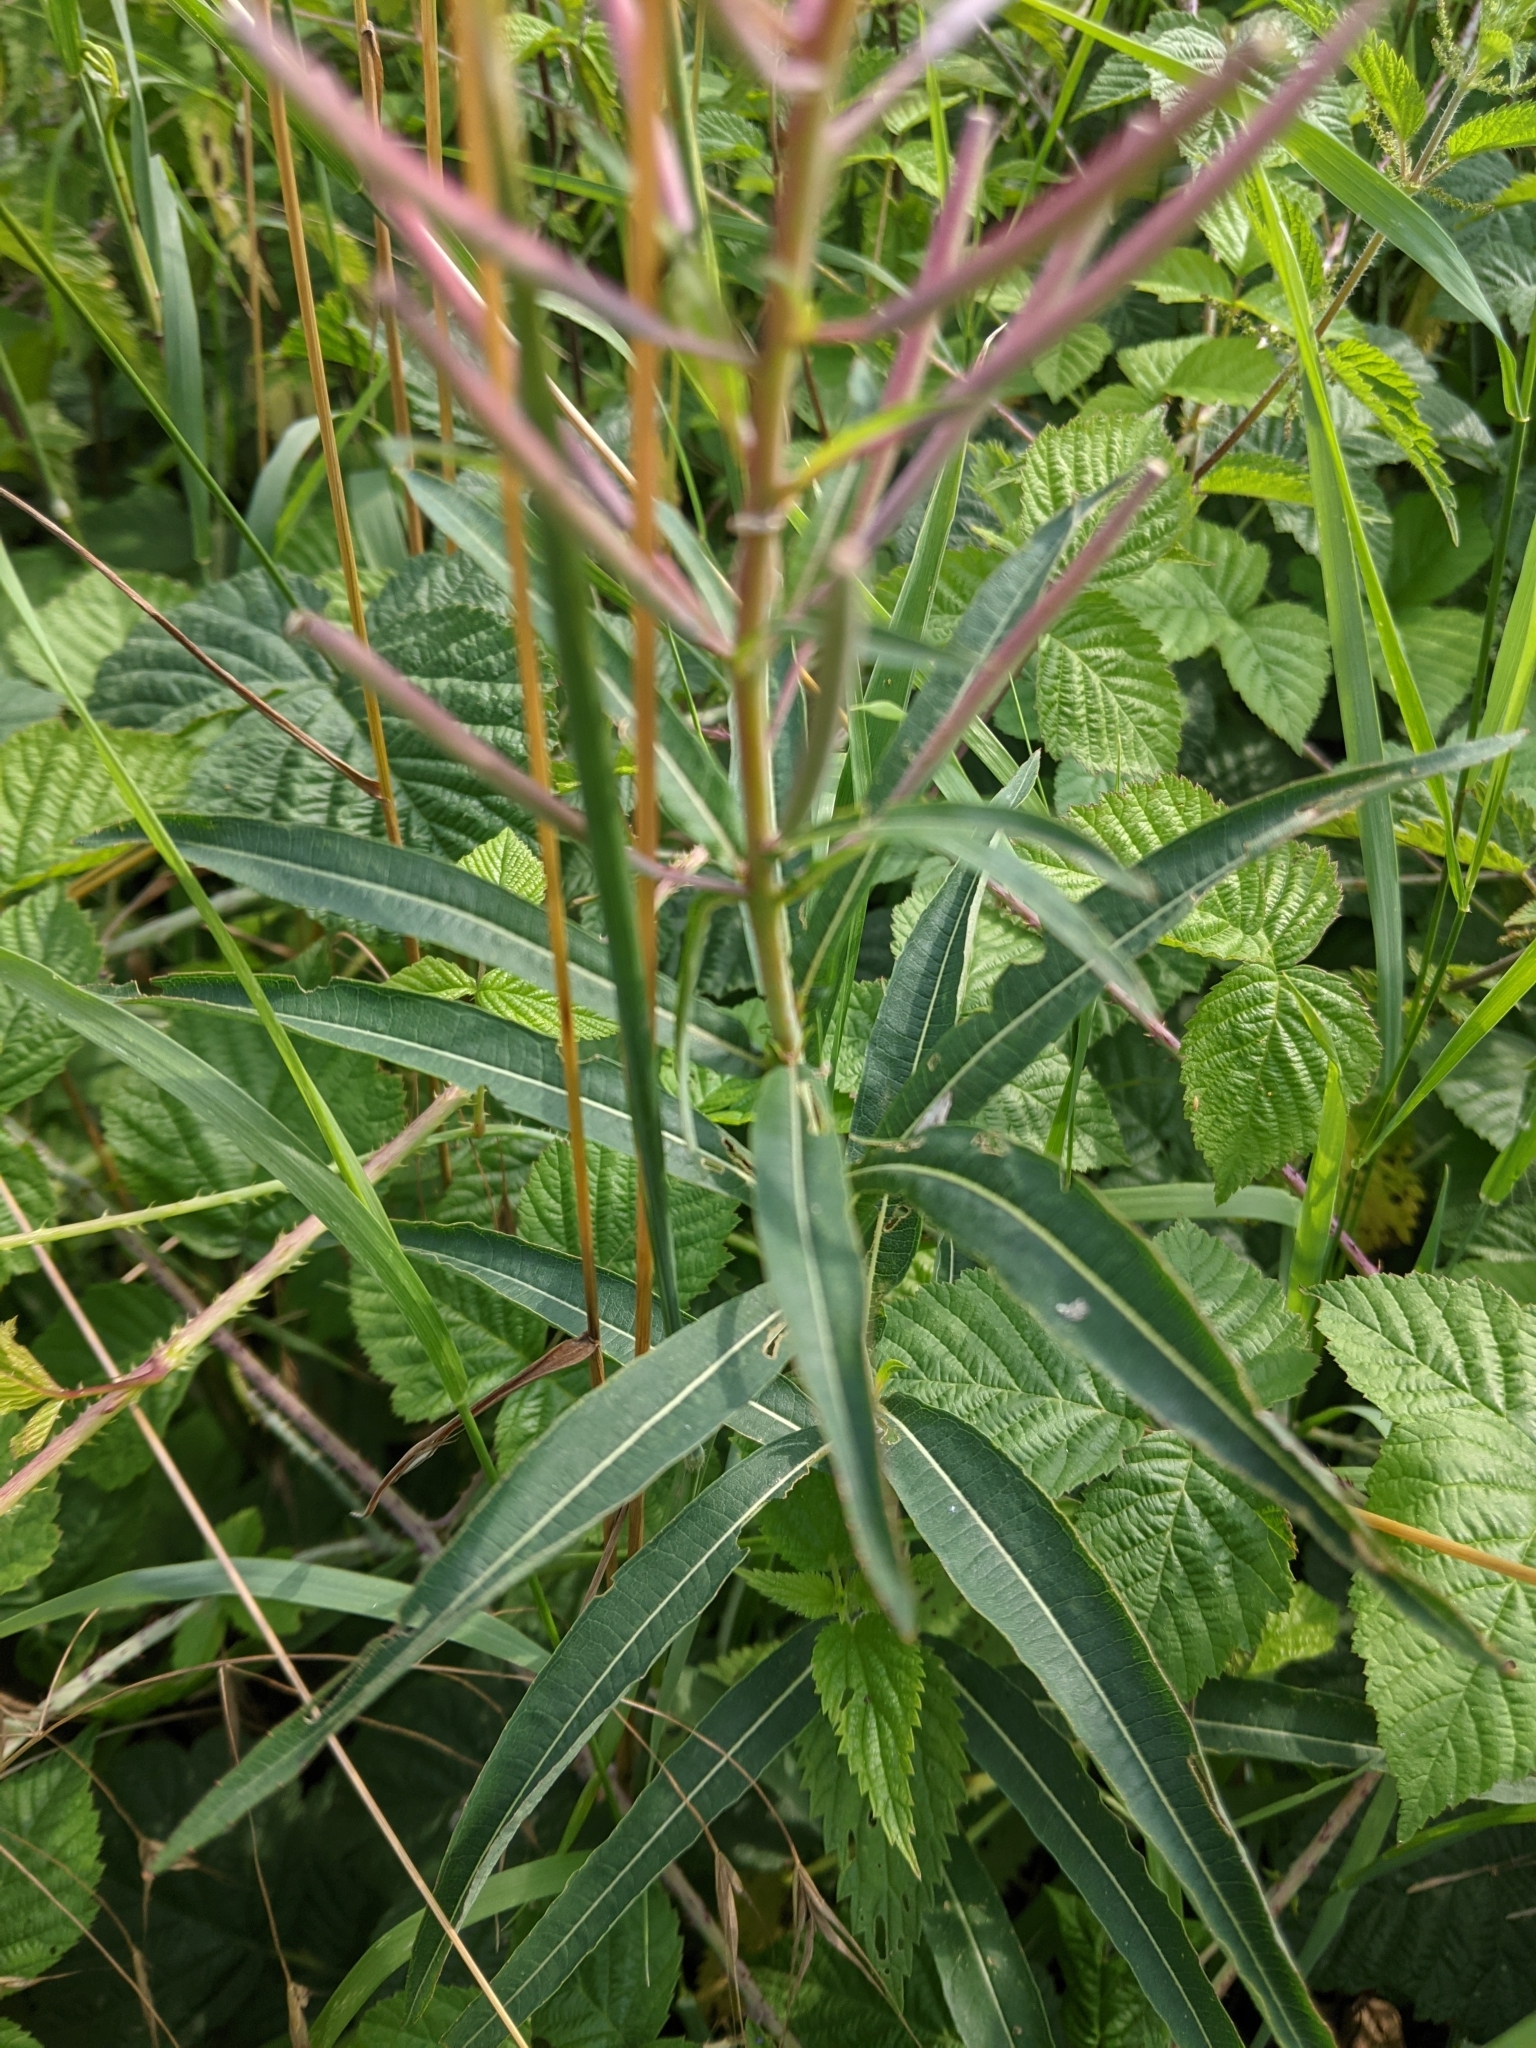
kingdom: Plantae
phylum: Tracheophyta
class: Magnoliopsida
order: Myrtales
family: Onagraceae
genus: Chamaenerion
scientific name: Chamaenerion angustifolium
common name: Fireweed
